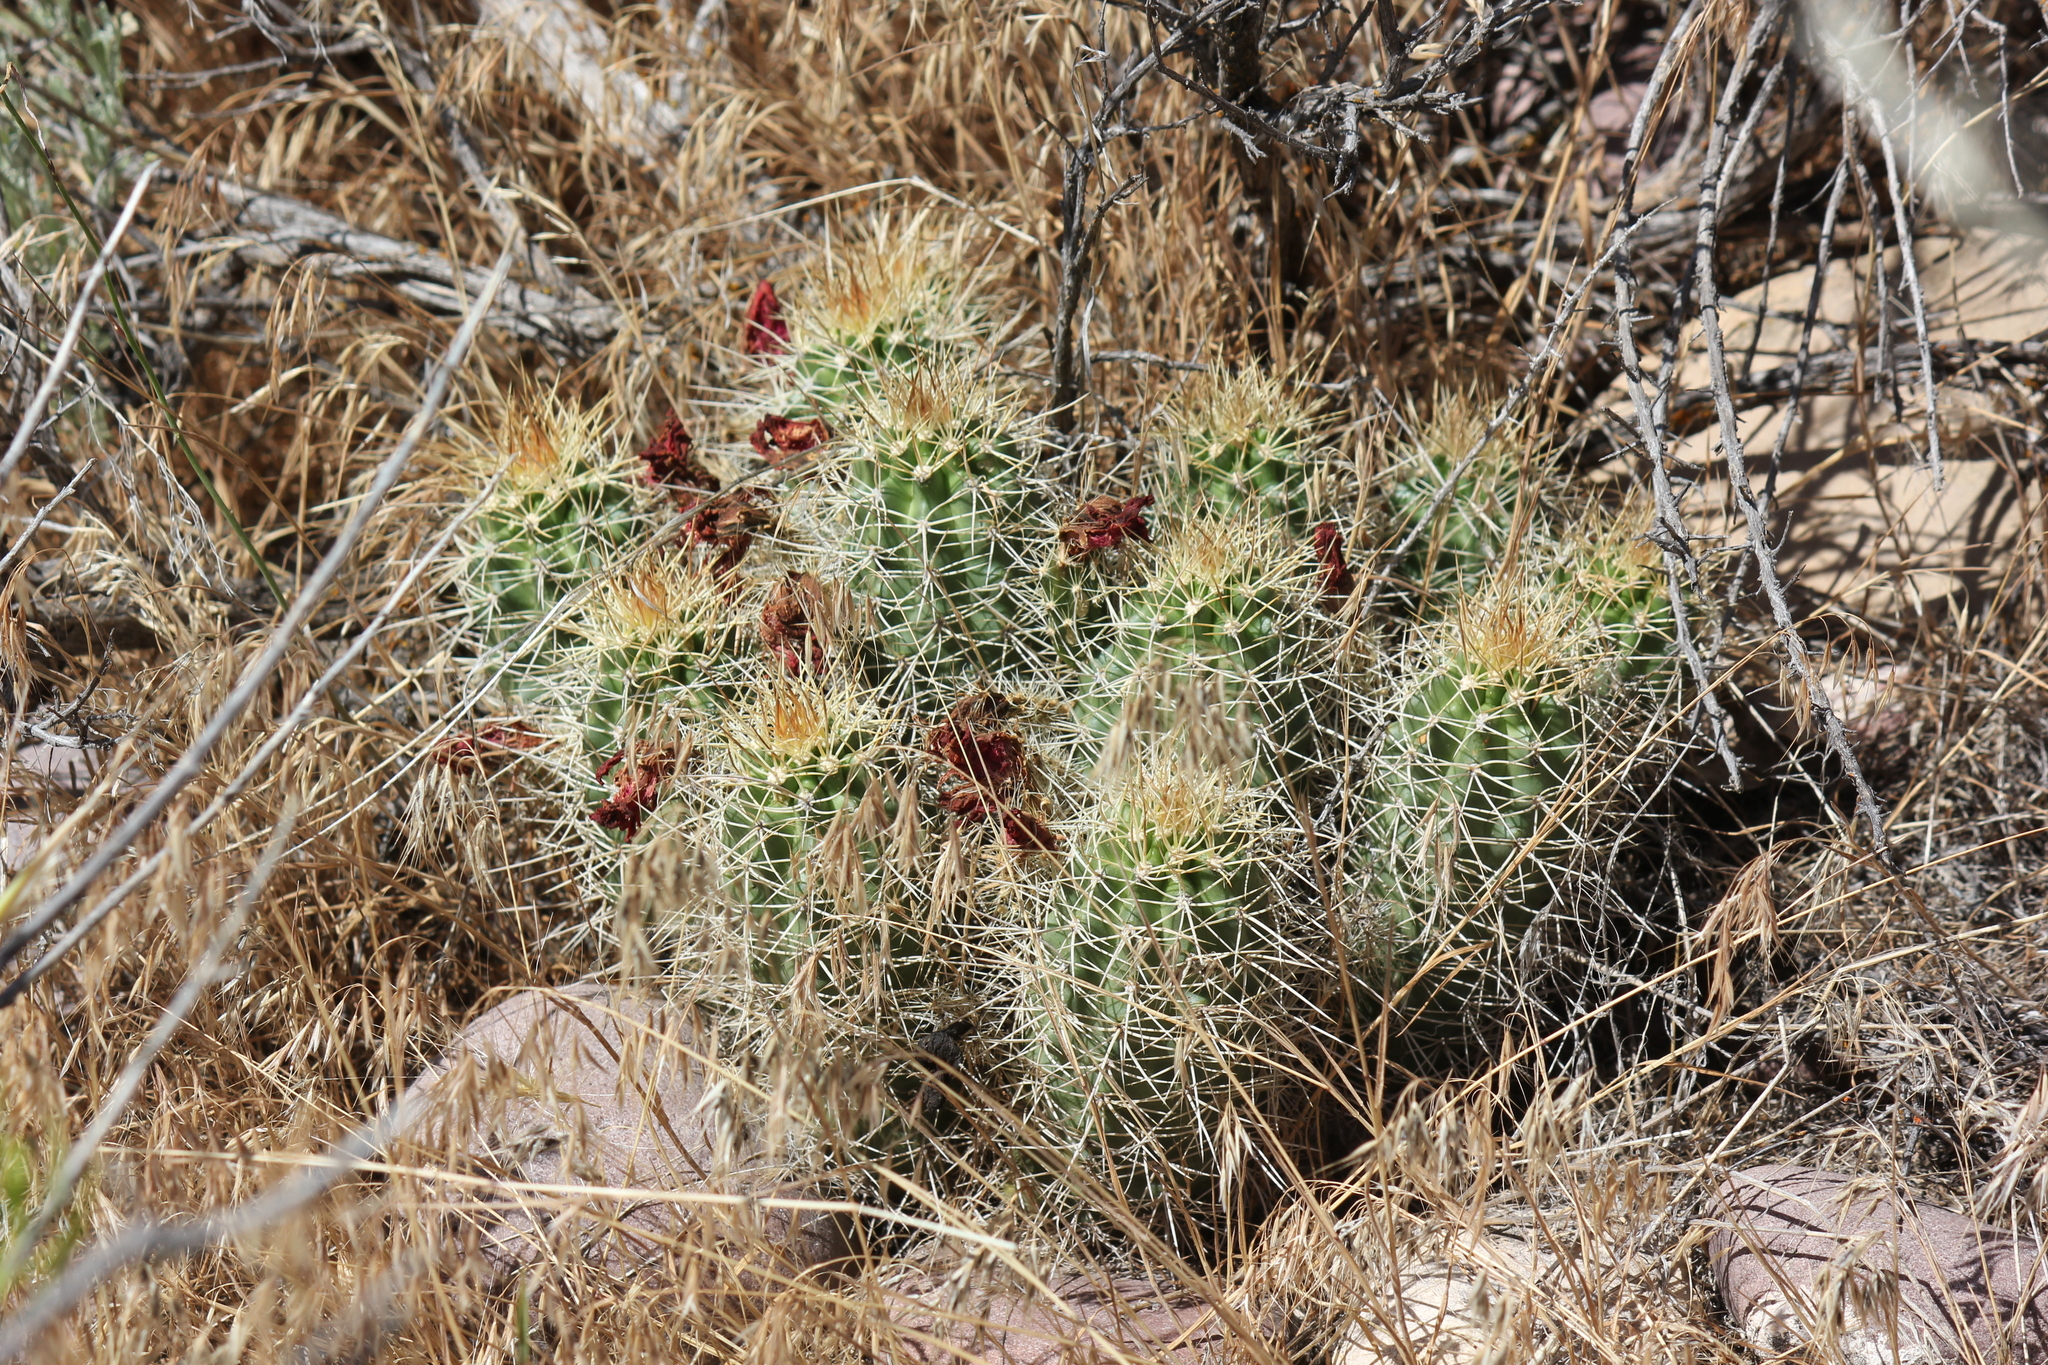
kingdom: Plantae
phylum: Tracheophyta
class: Magnoliopsida
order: Caryophyllales
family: Cactaceae
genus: Echinocereus
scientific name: Echinocereus triglochidiatus
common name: Claretcup hedgehog
